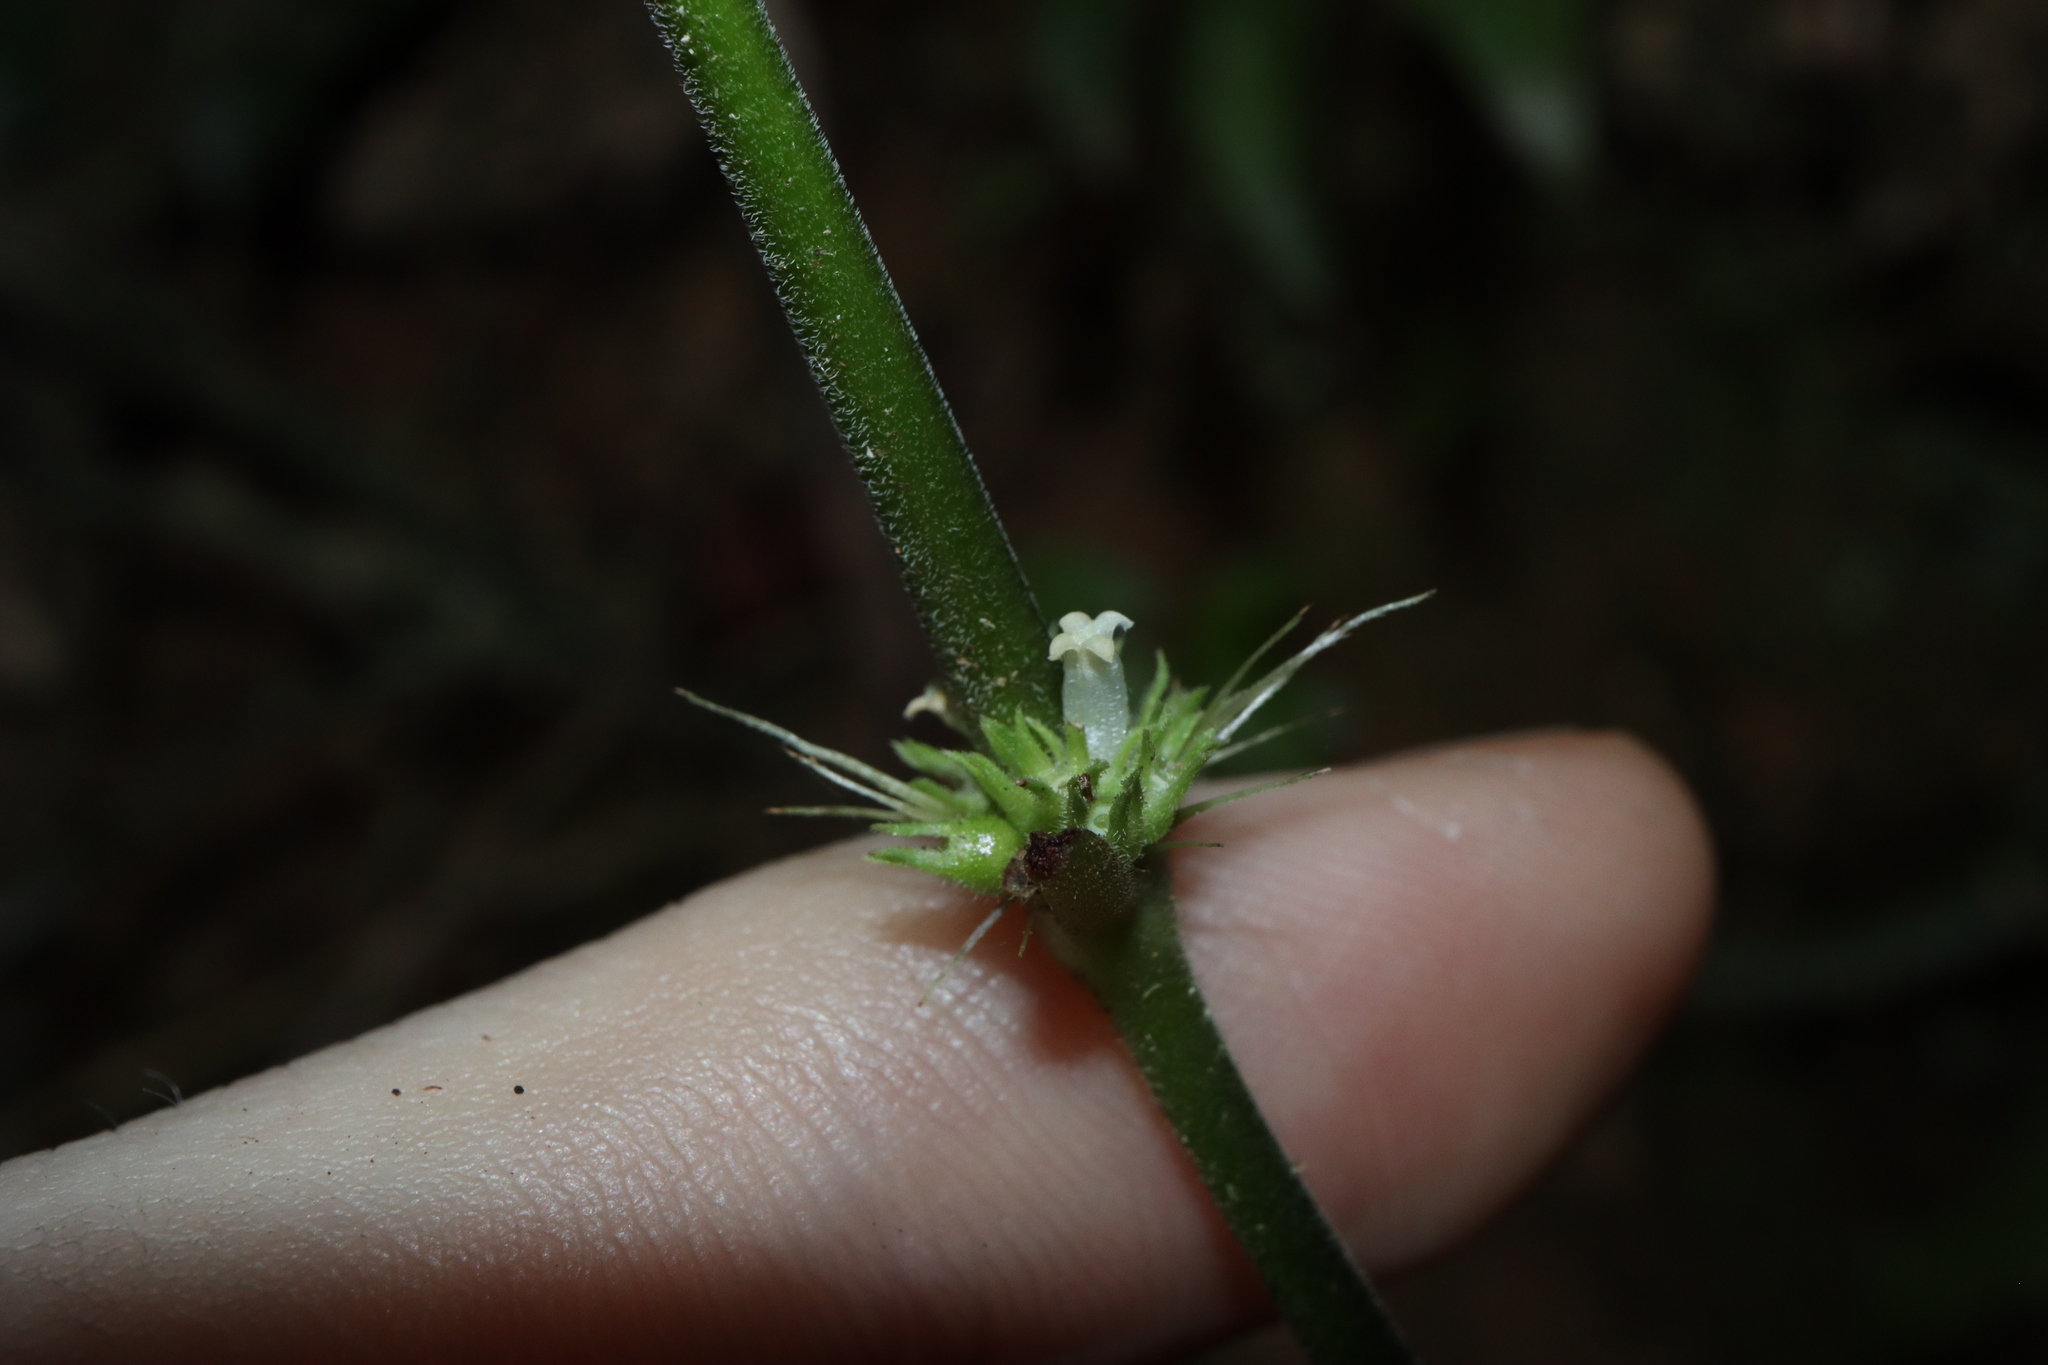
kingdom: Plantae
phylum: Tracheophyta
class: Magnoliopsida
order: Gentianales
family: Rubiaceae
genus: Exallage
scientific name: Exallage lapeyrousei
